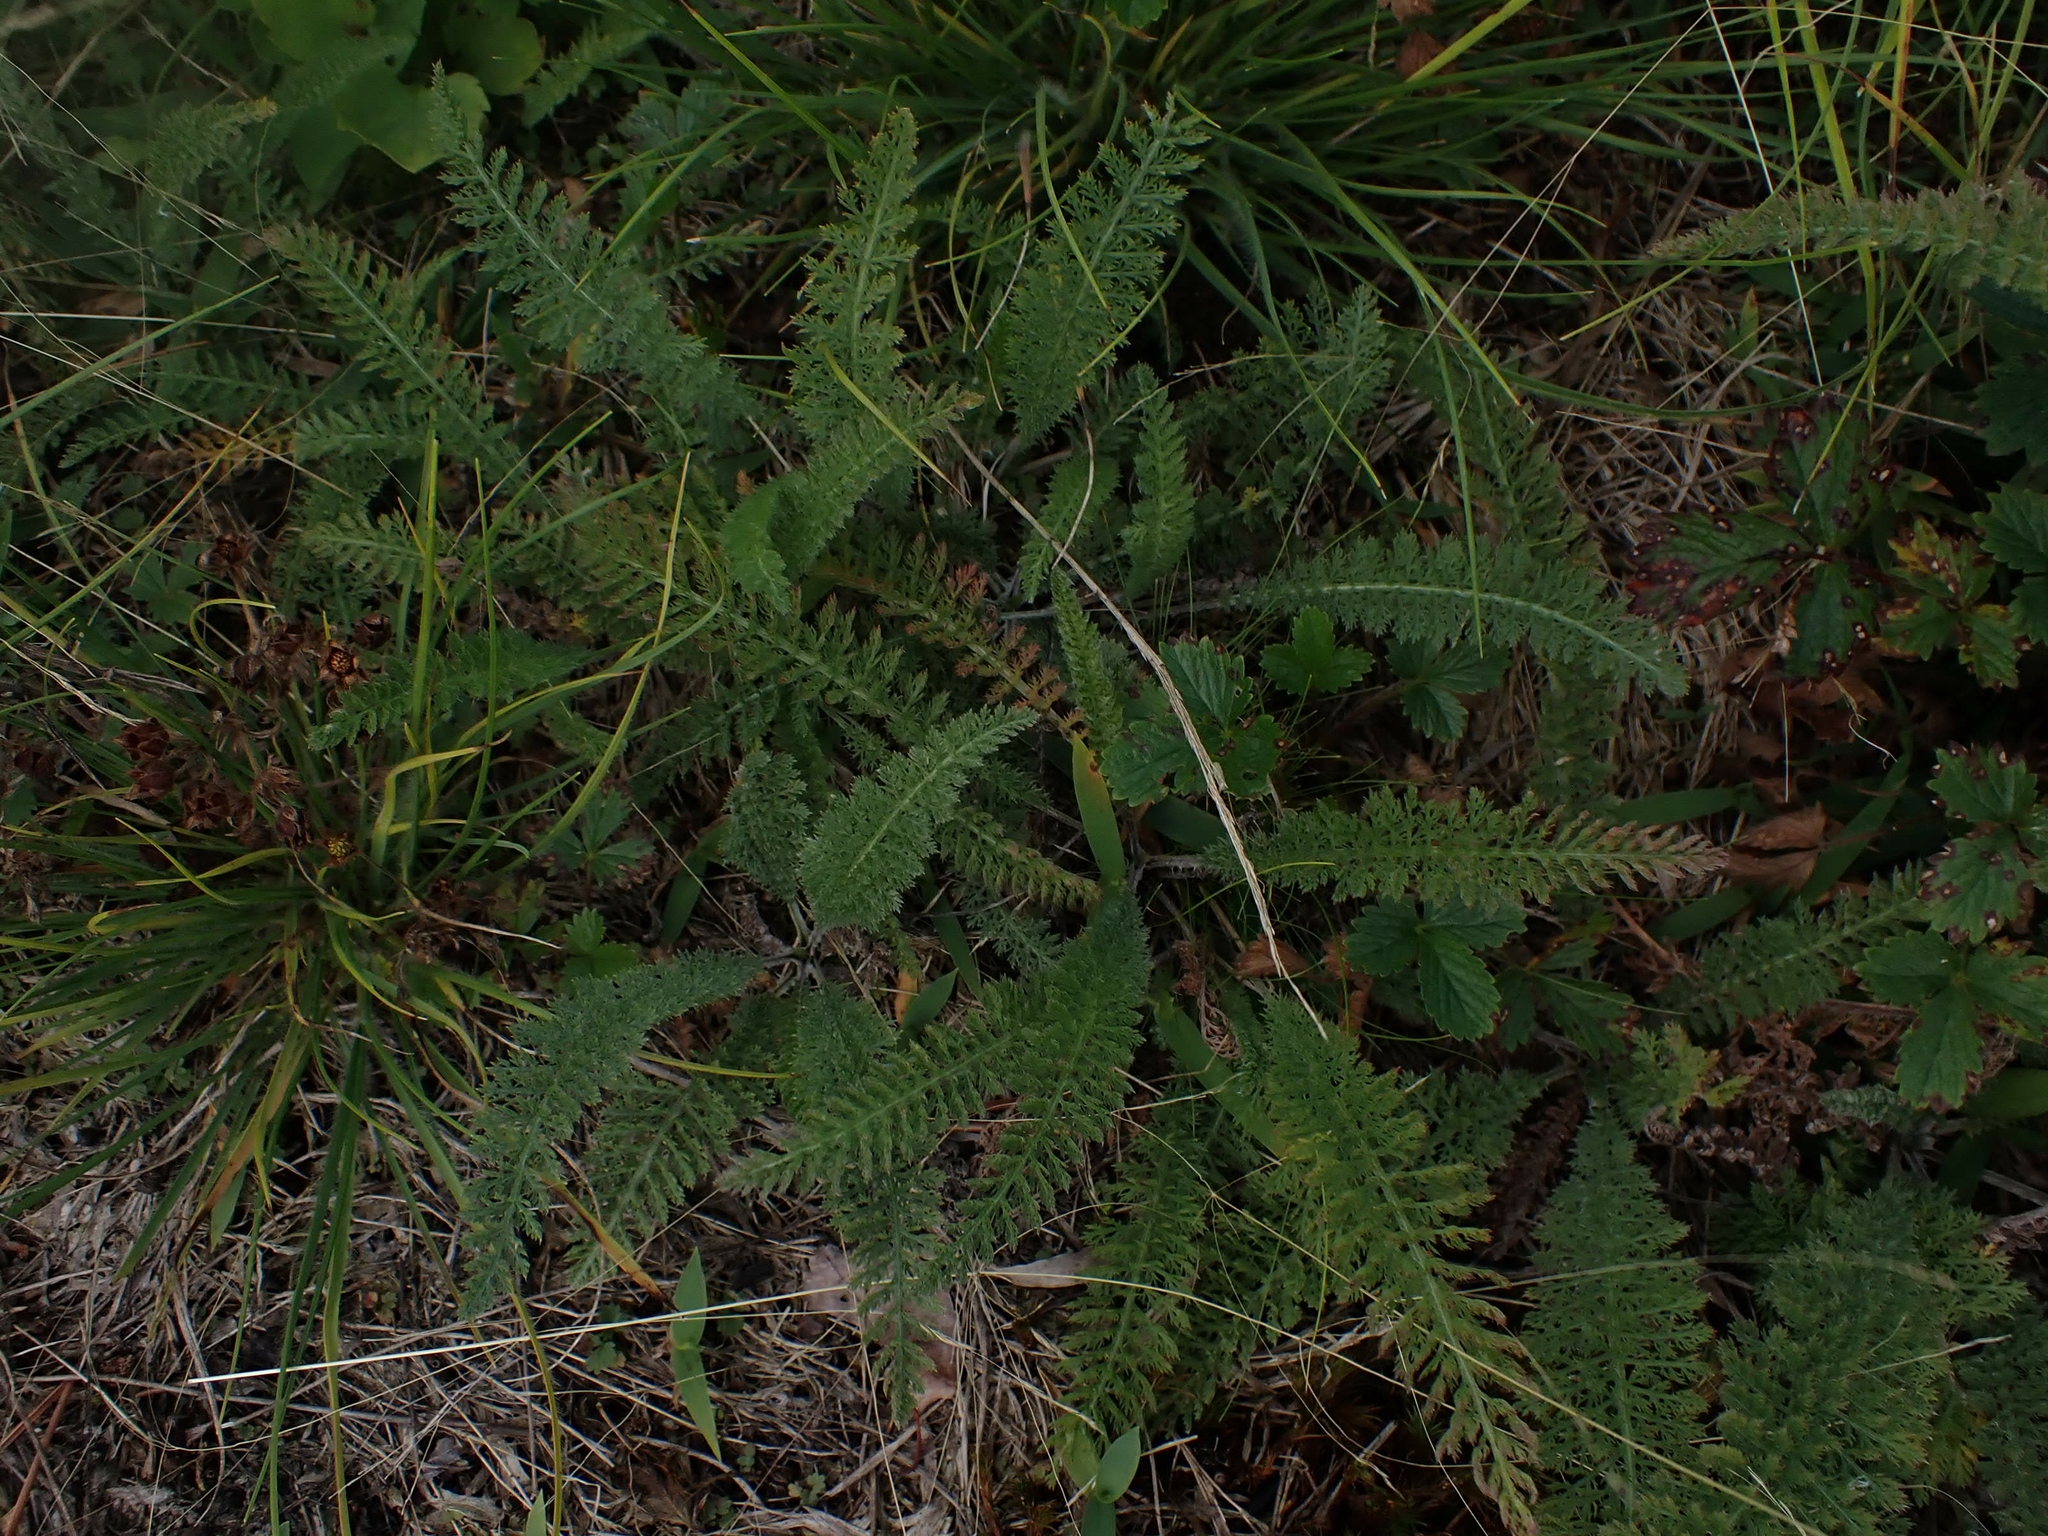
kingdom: Plantae
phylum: Tracheophyta
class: Magnoliopsida
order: Asterales
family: Asteraceae
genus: Achillea
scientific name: Achillea millefolium
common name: Yarrow
